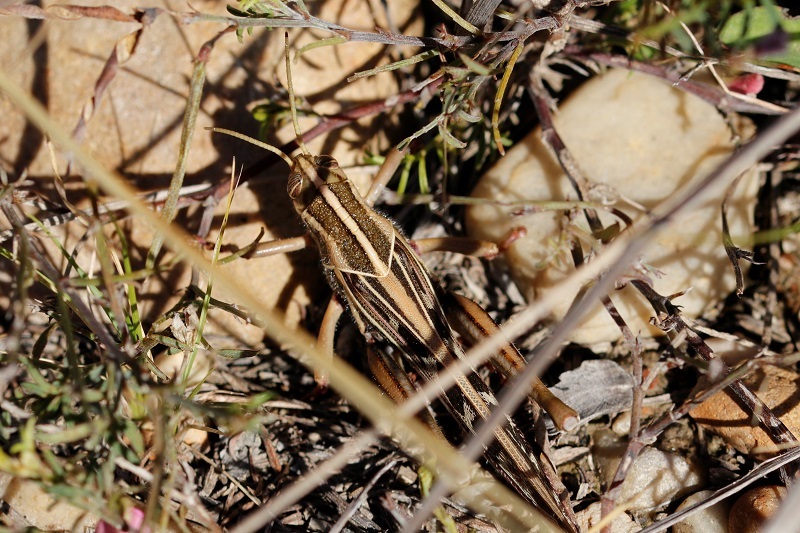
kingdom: Animalia
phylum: Arthropoda
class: Insecta
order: Orthoptera
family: Acrididae
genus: Cyrtacanthacris
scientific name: Cyrtacanthacris tatarica
